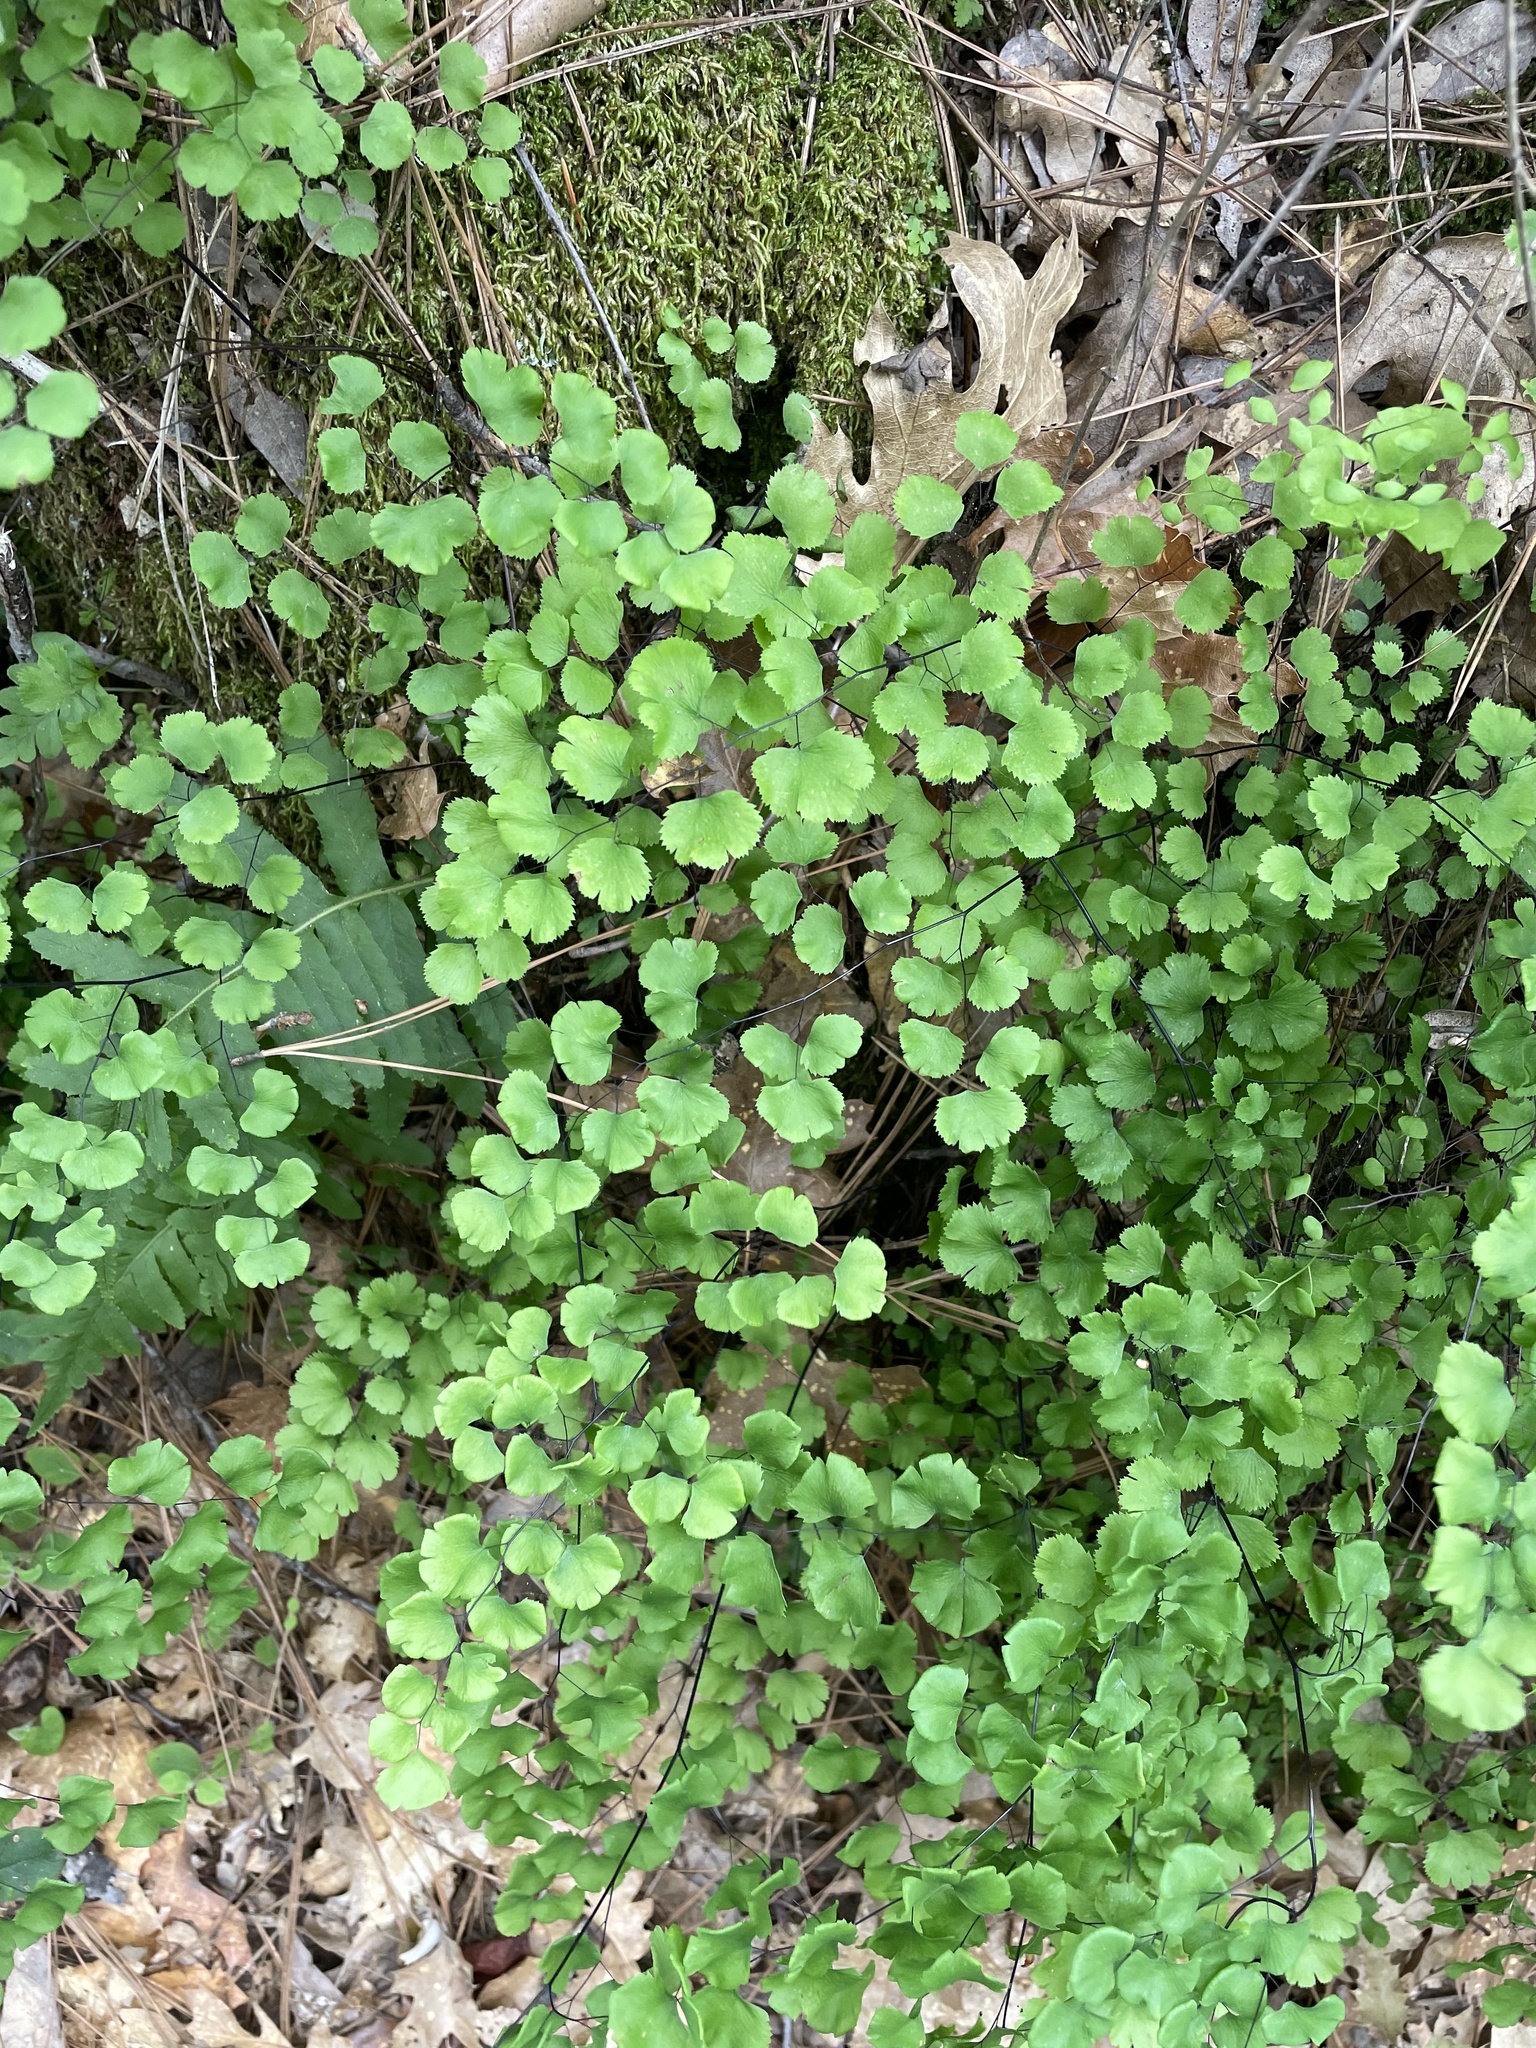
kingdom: Plantae
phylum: Tracheophyta
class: Polypodiopsida
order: Polypodiales
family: Pteridaceae
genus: Adiantum
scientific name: Adiantum jordanii
